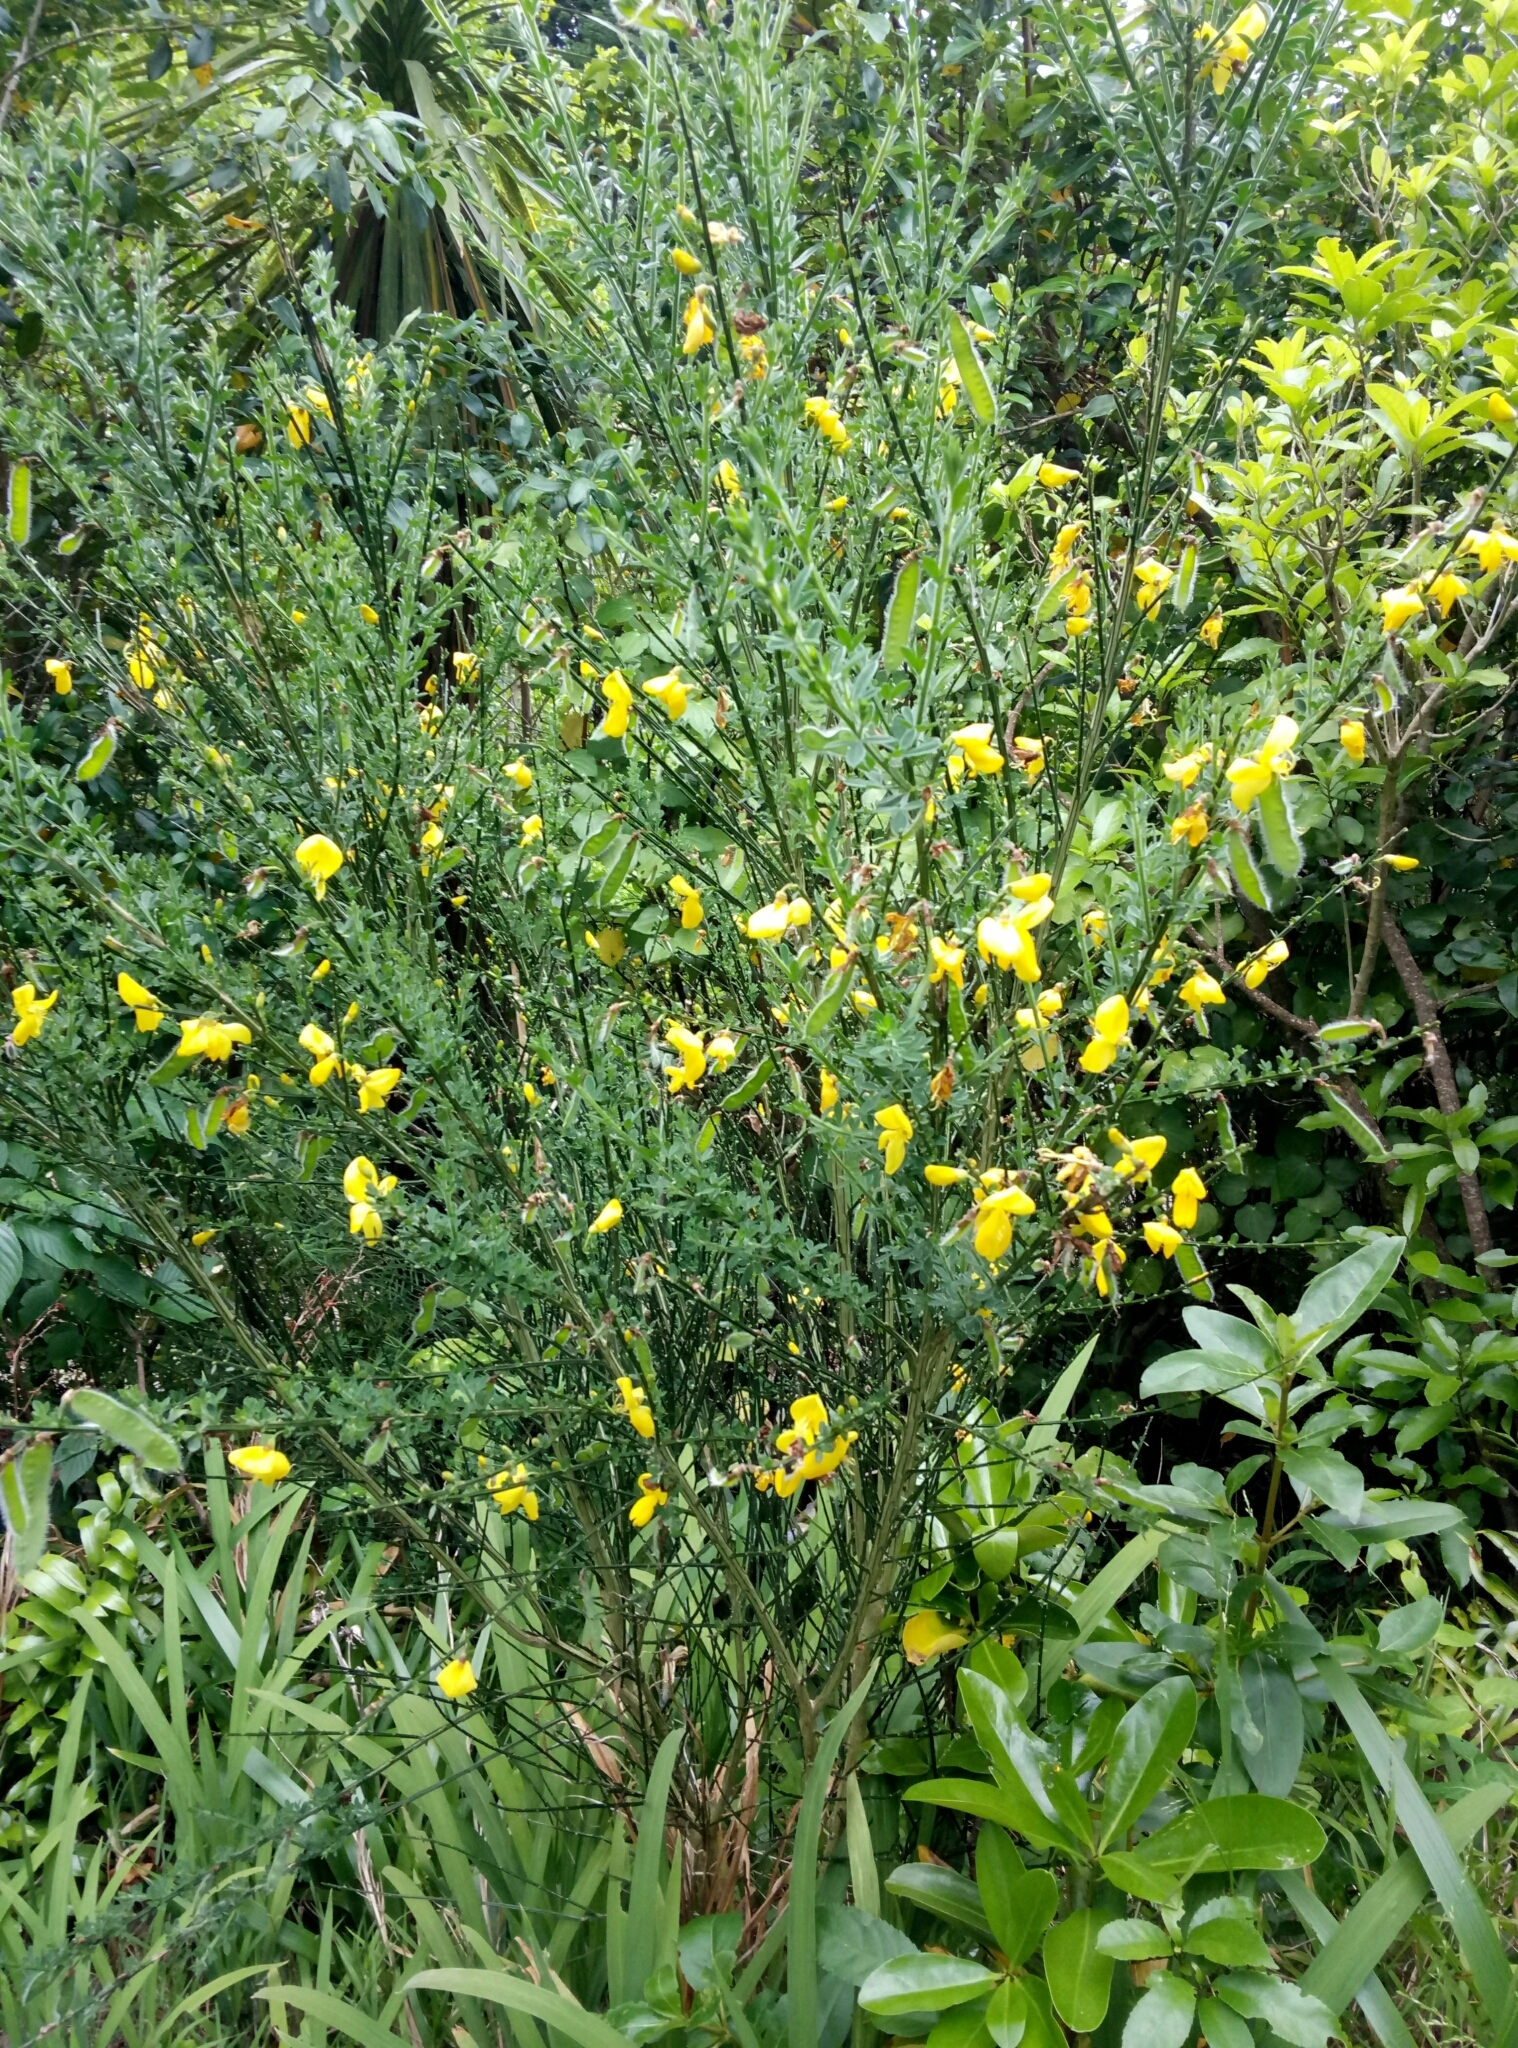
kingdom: Plantae
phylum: Tracheophyta
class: Magnoliopsida
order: Fabales
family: Fabaceae
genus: Cytisus
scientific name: Cytisus scoparius
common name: Scotch broom
